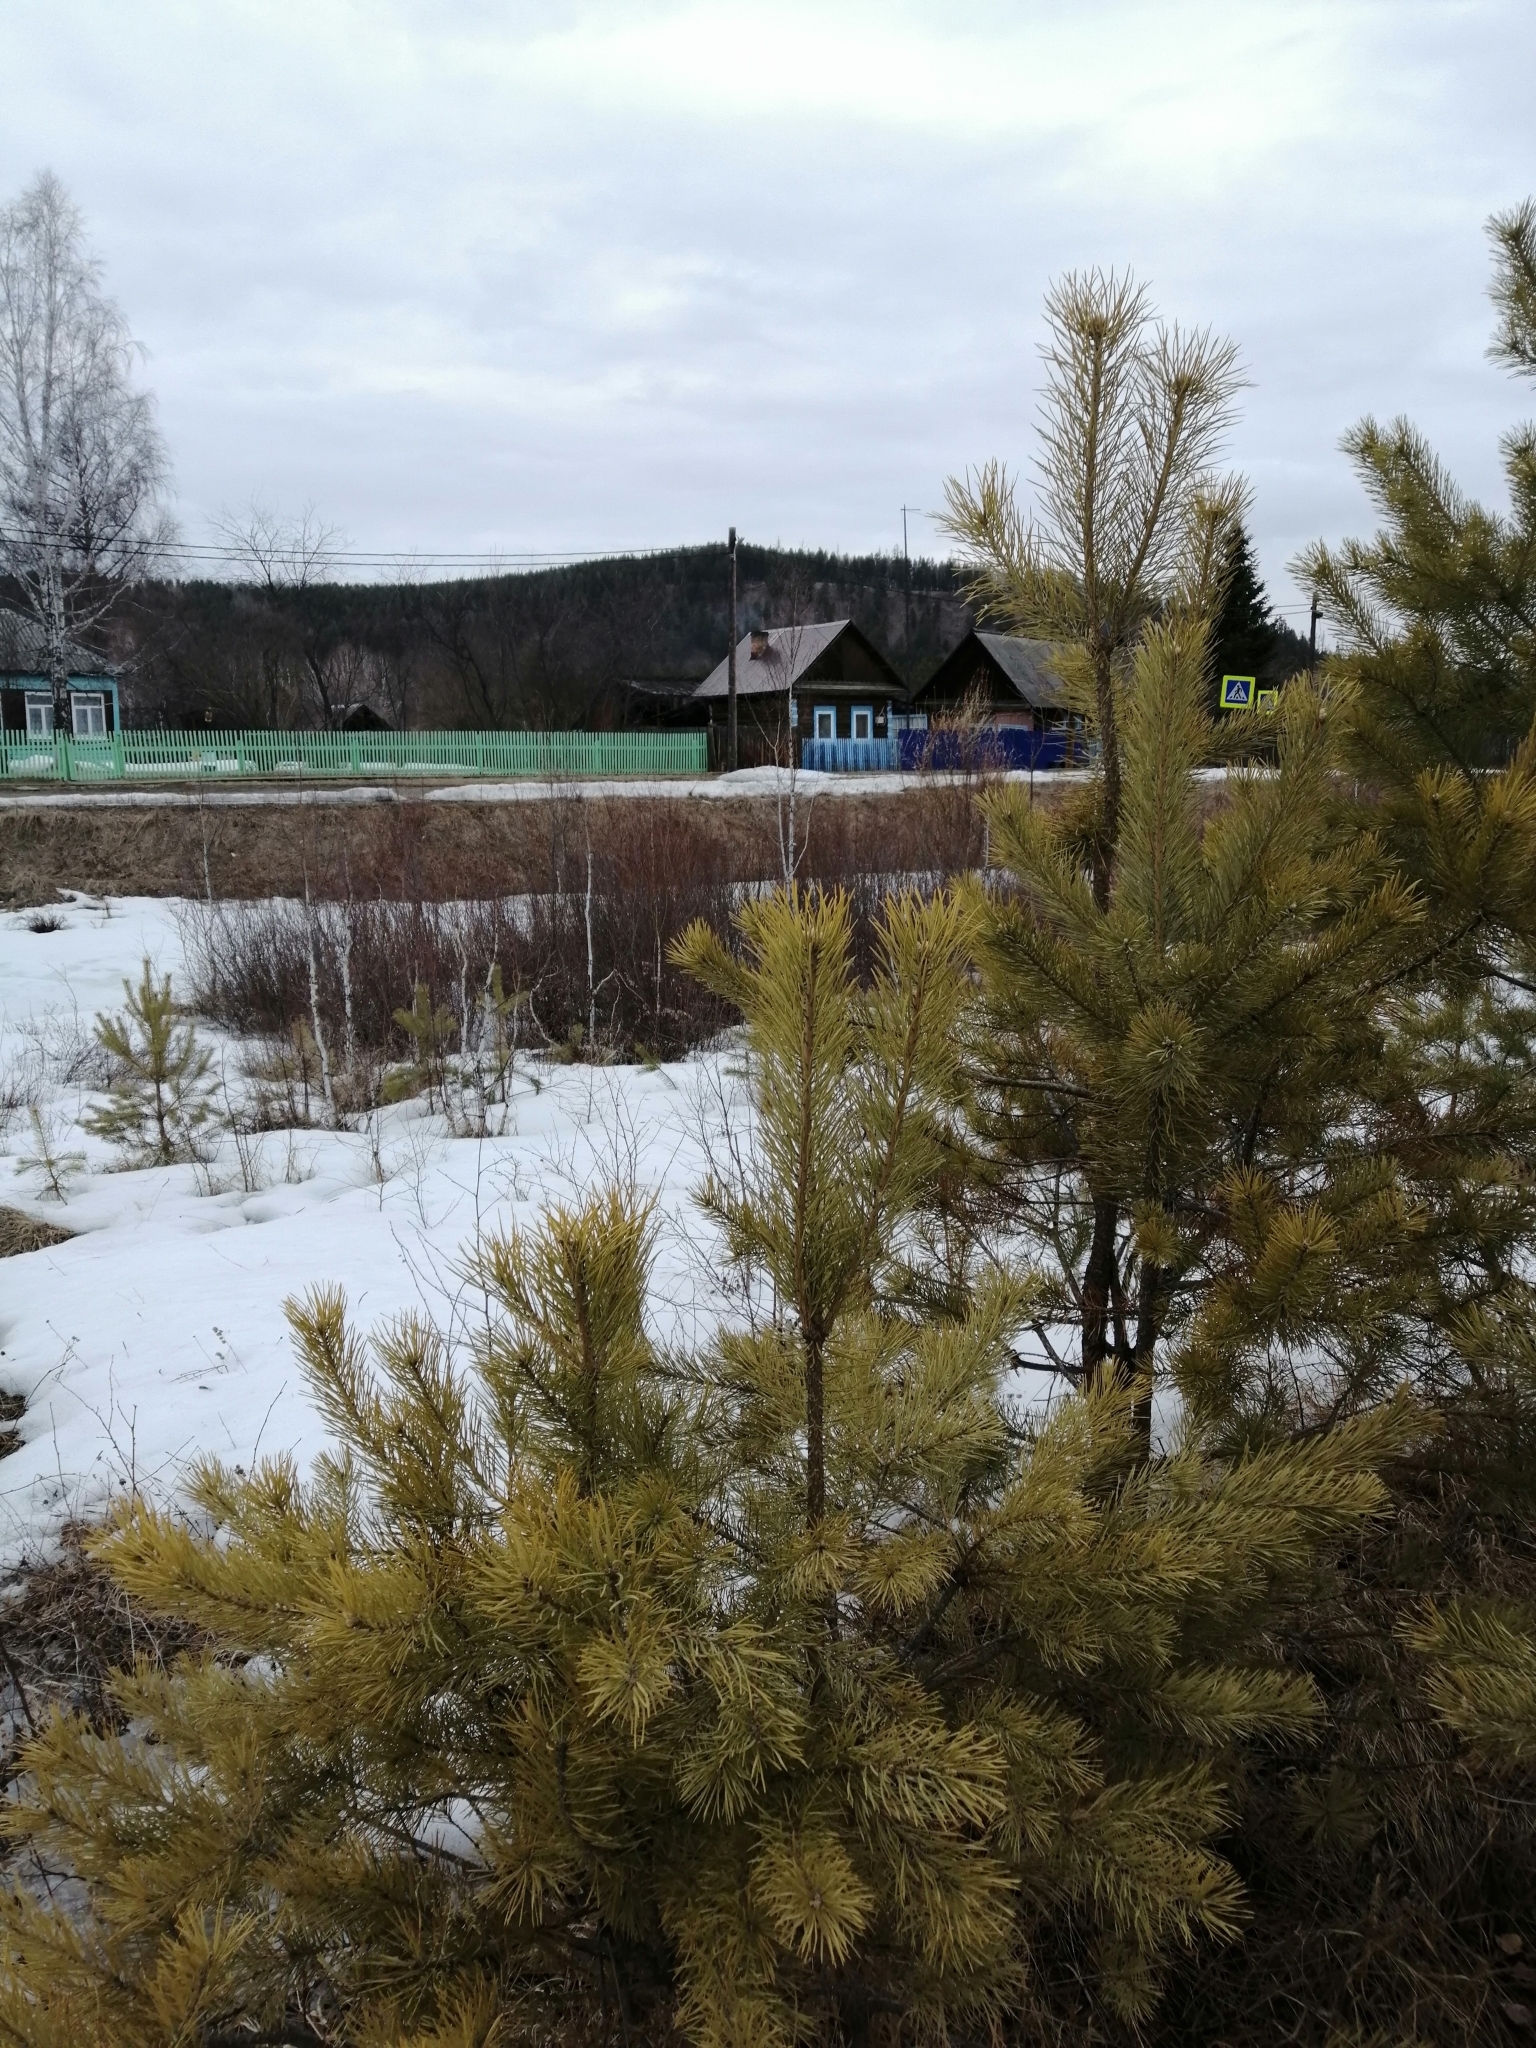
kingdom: Plantae
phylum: Tracheophyta
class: Pinopsida
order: Pinales
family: Pinaceae
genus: Pinus
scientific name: Pinus sylvestris
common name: Scots pine
